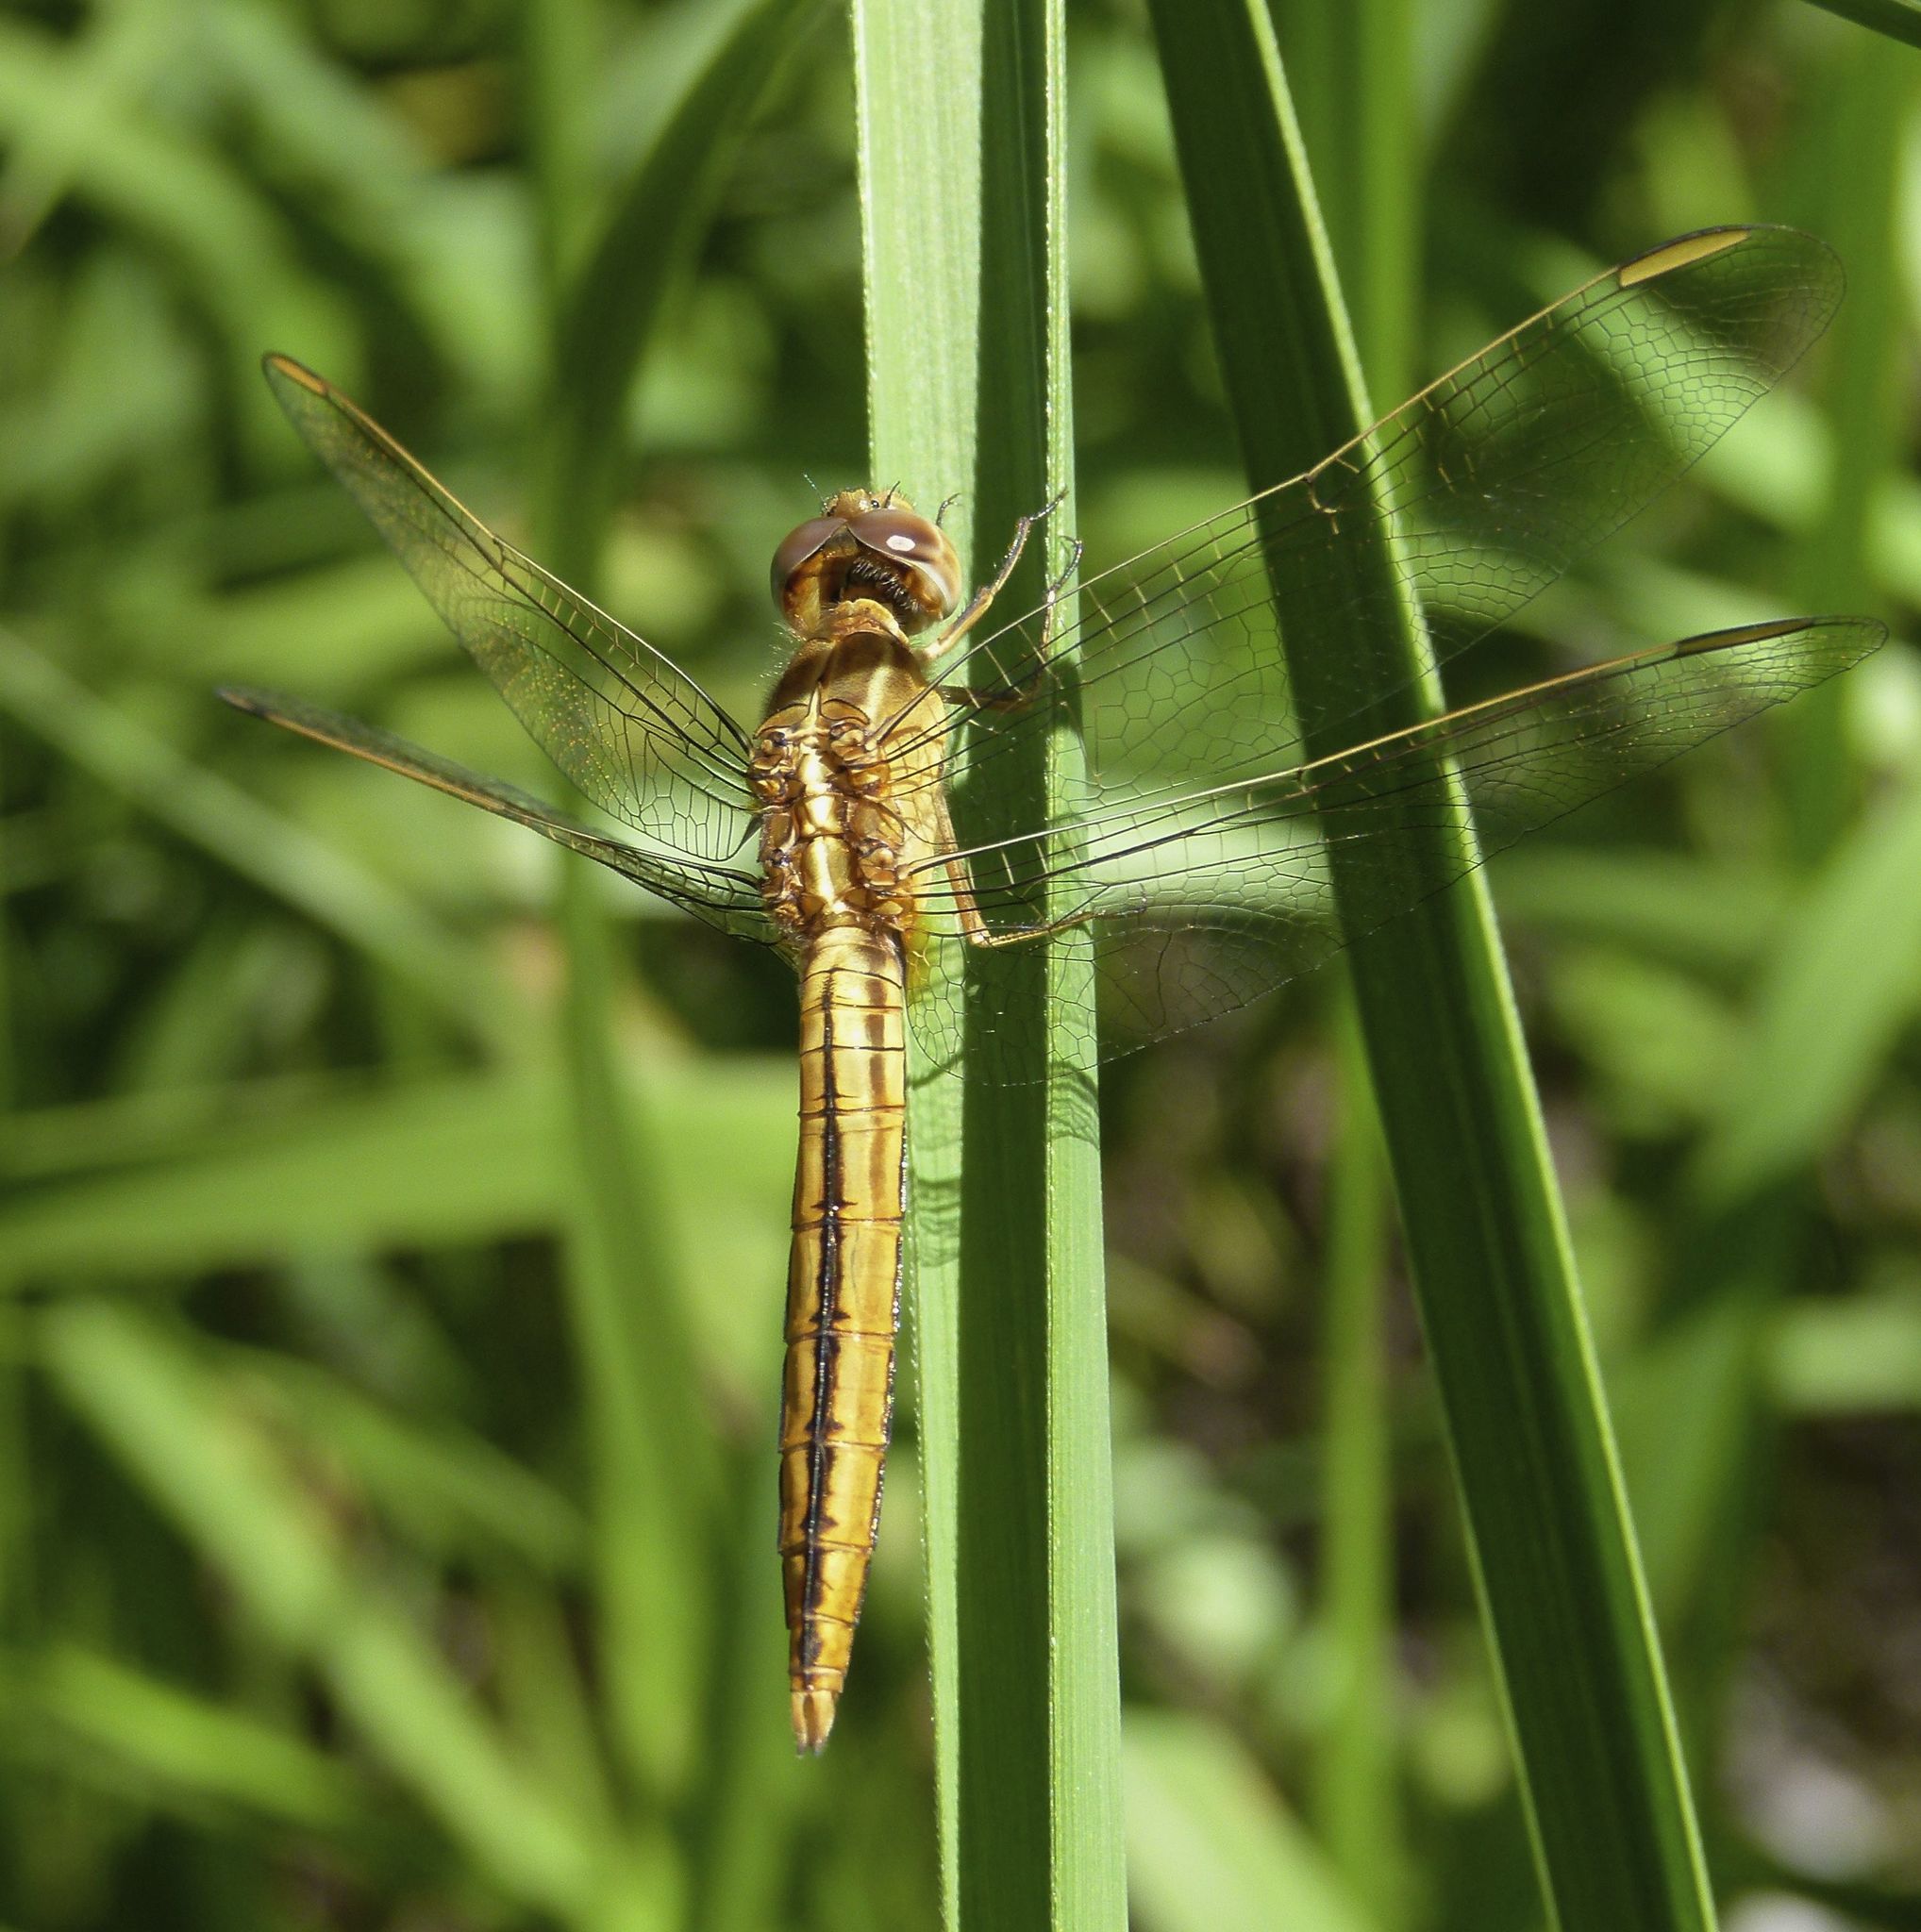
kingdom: Animalia
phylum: Arthropoda
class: Insecta
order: Odonata
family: Libellulidae
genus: Crocothemis
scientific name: Crocothemis nigrifrons
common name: Black-headed skimmer
